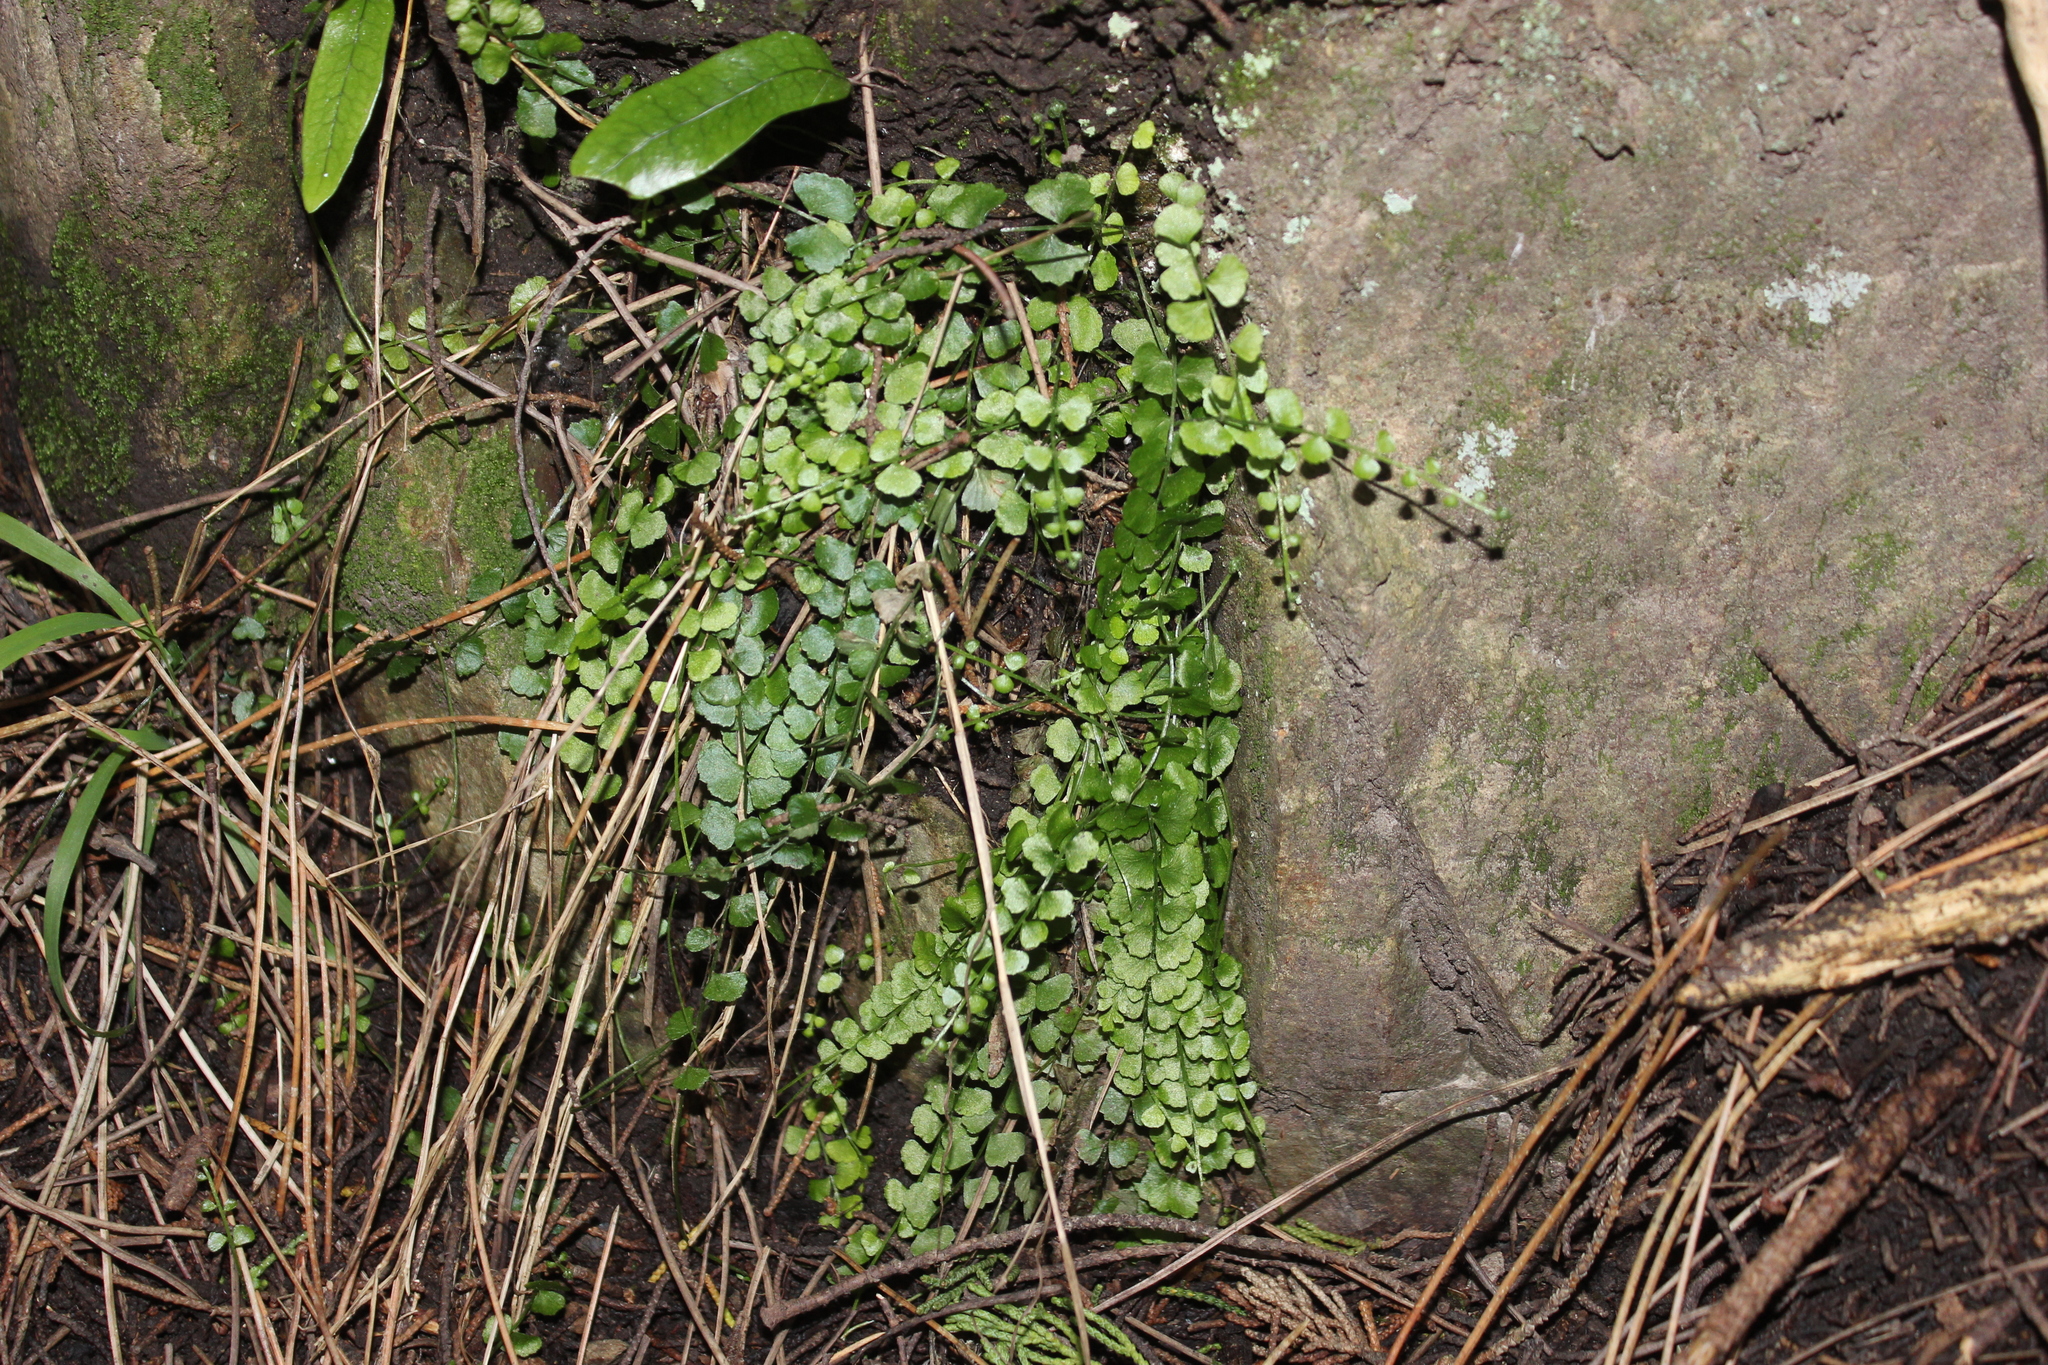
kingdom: Plantae
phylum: Tracheophyta
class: Polypodiopsida
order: Polypodiales
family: Aspleniaceae
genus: Asplenium
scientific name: Asplenium flabellifolium
